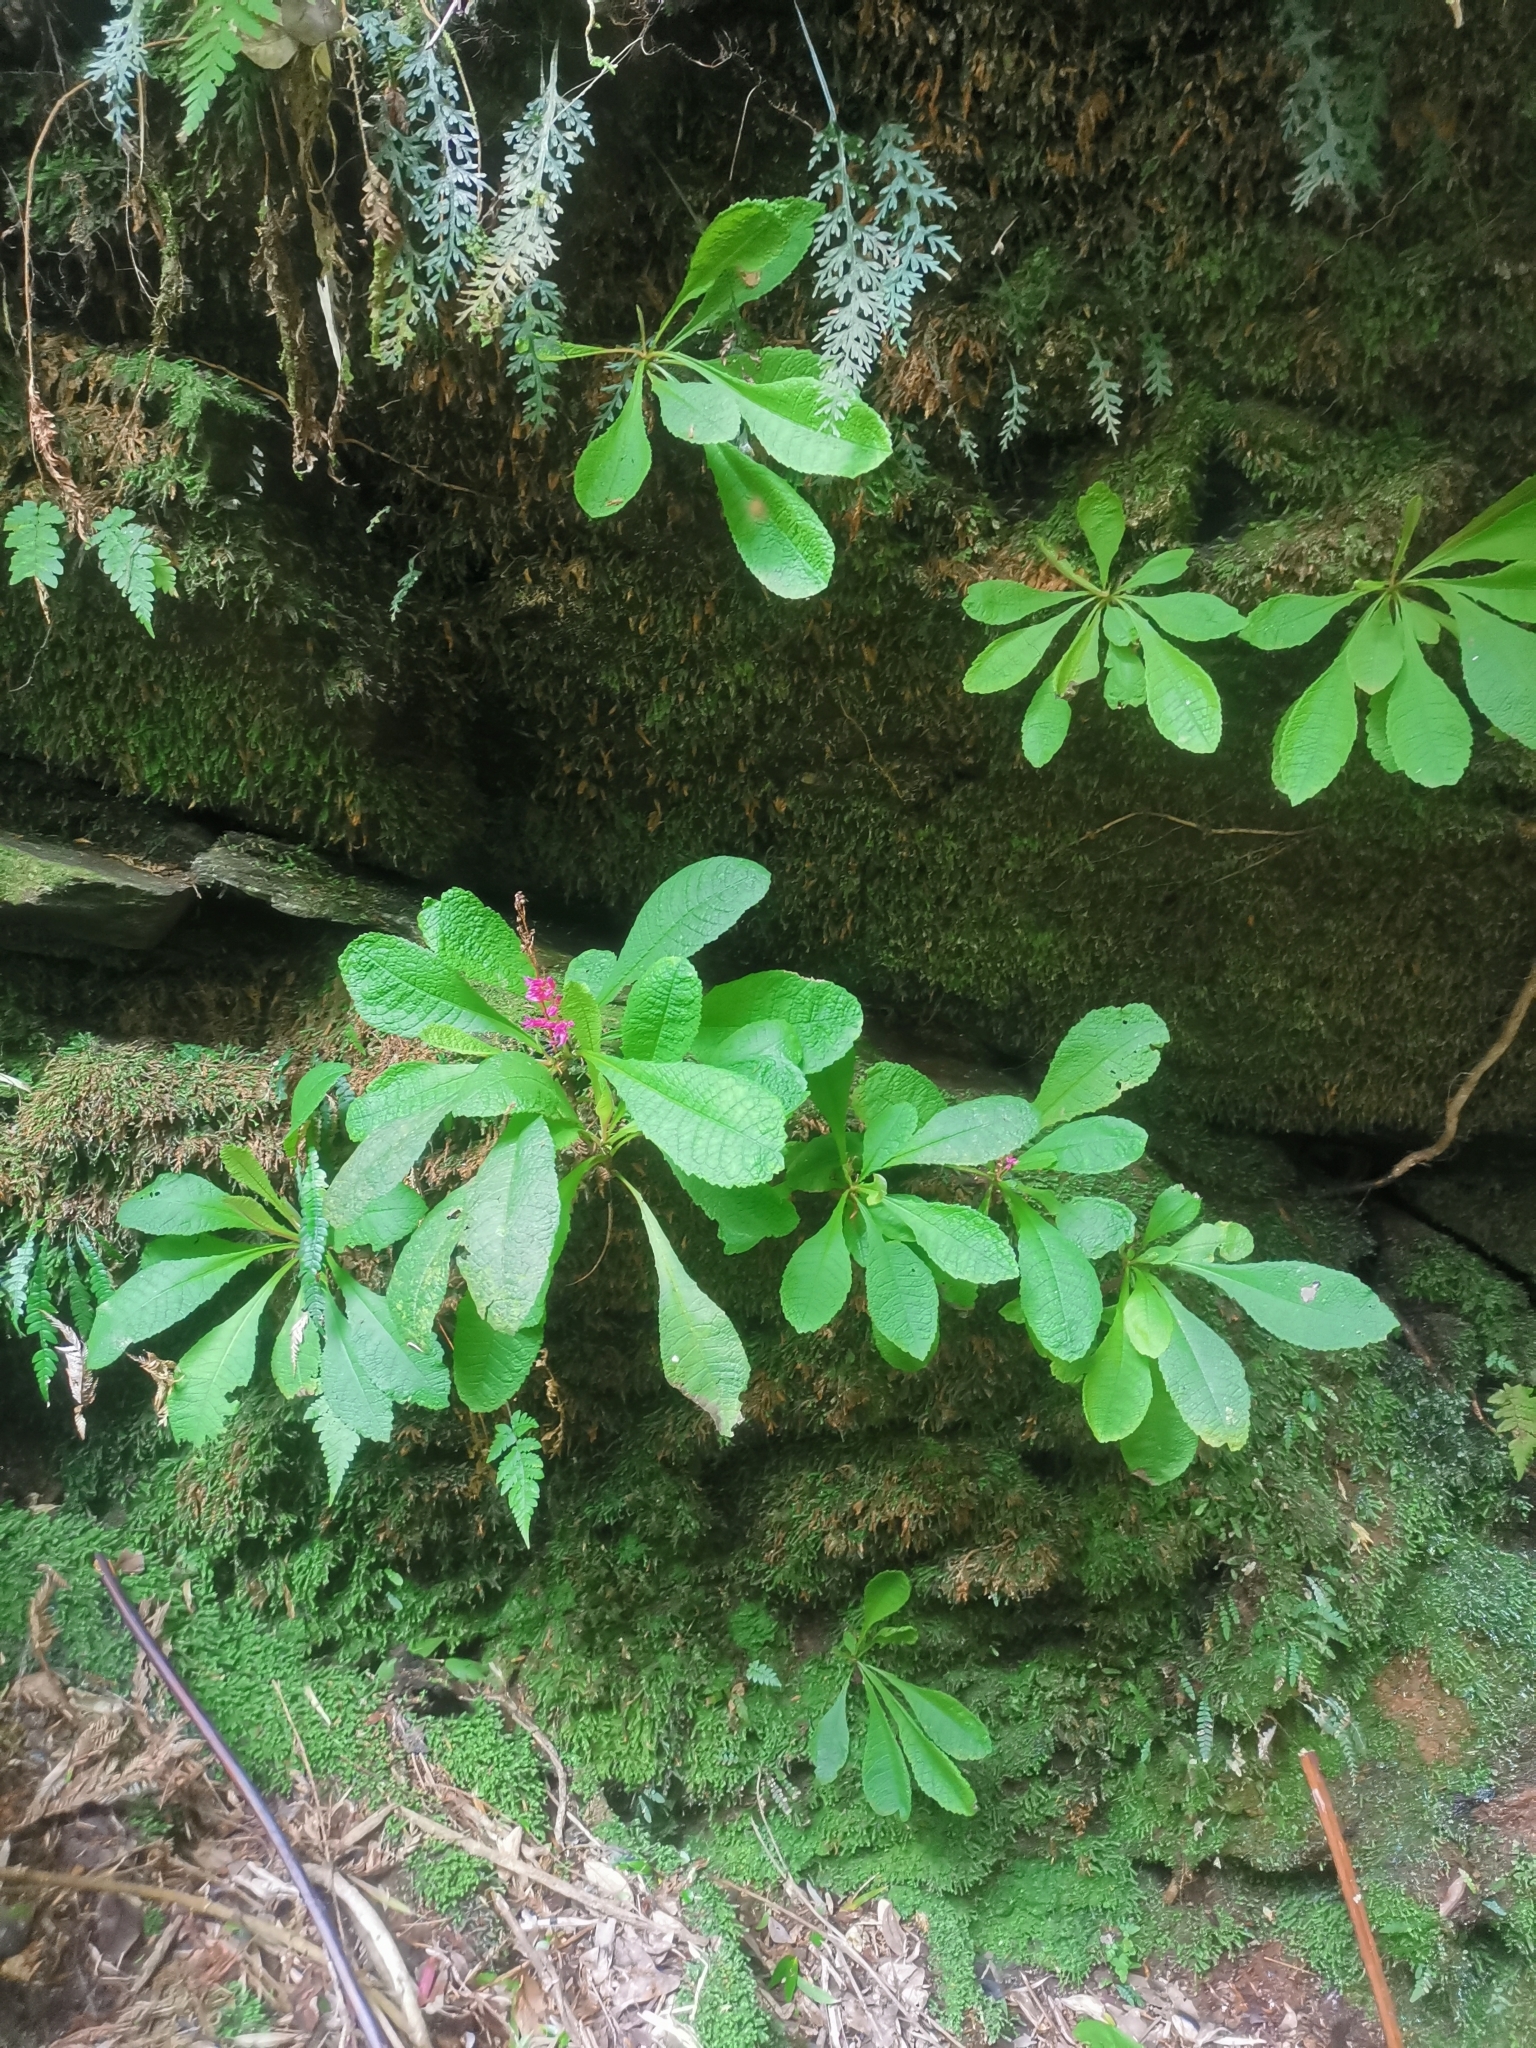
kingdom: Plantae
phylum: Tracheophyta
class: Magnoliopsida
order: Escalloniales
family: Escalloniaceae
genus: Valdivia
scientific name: Valdivia gayana
